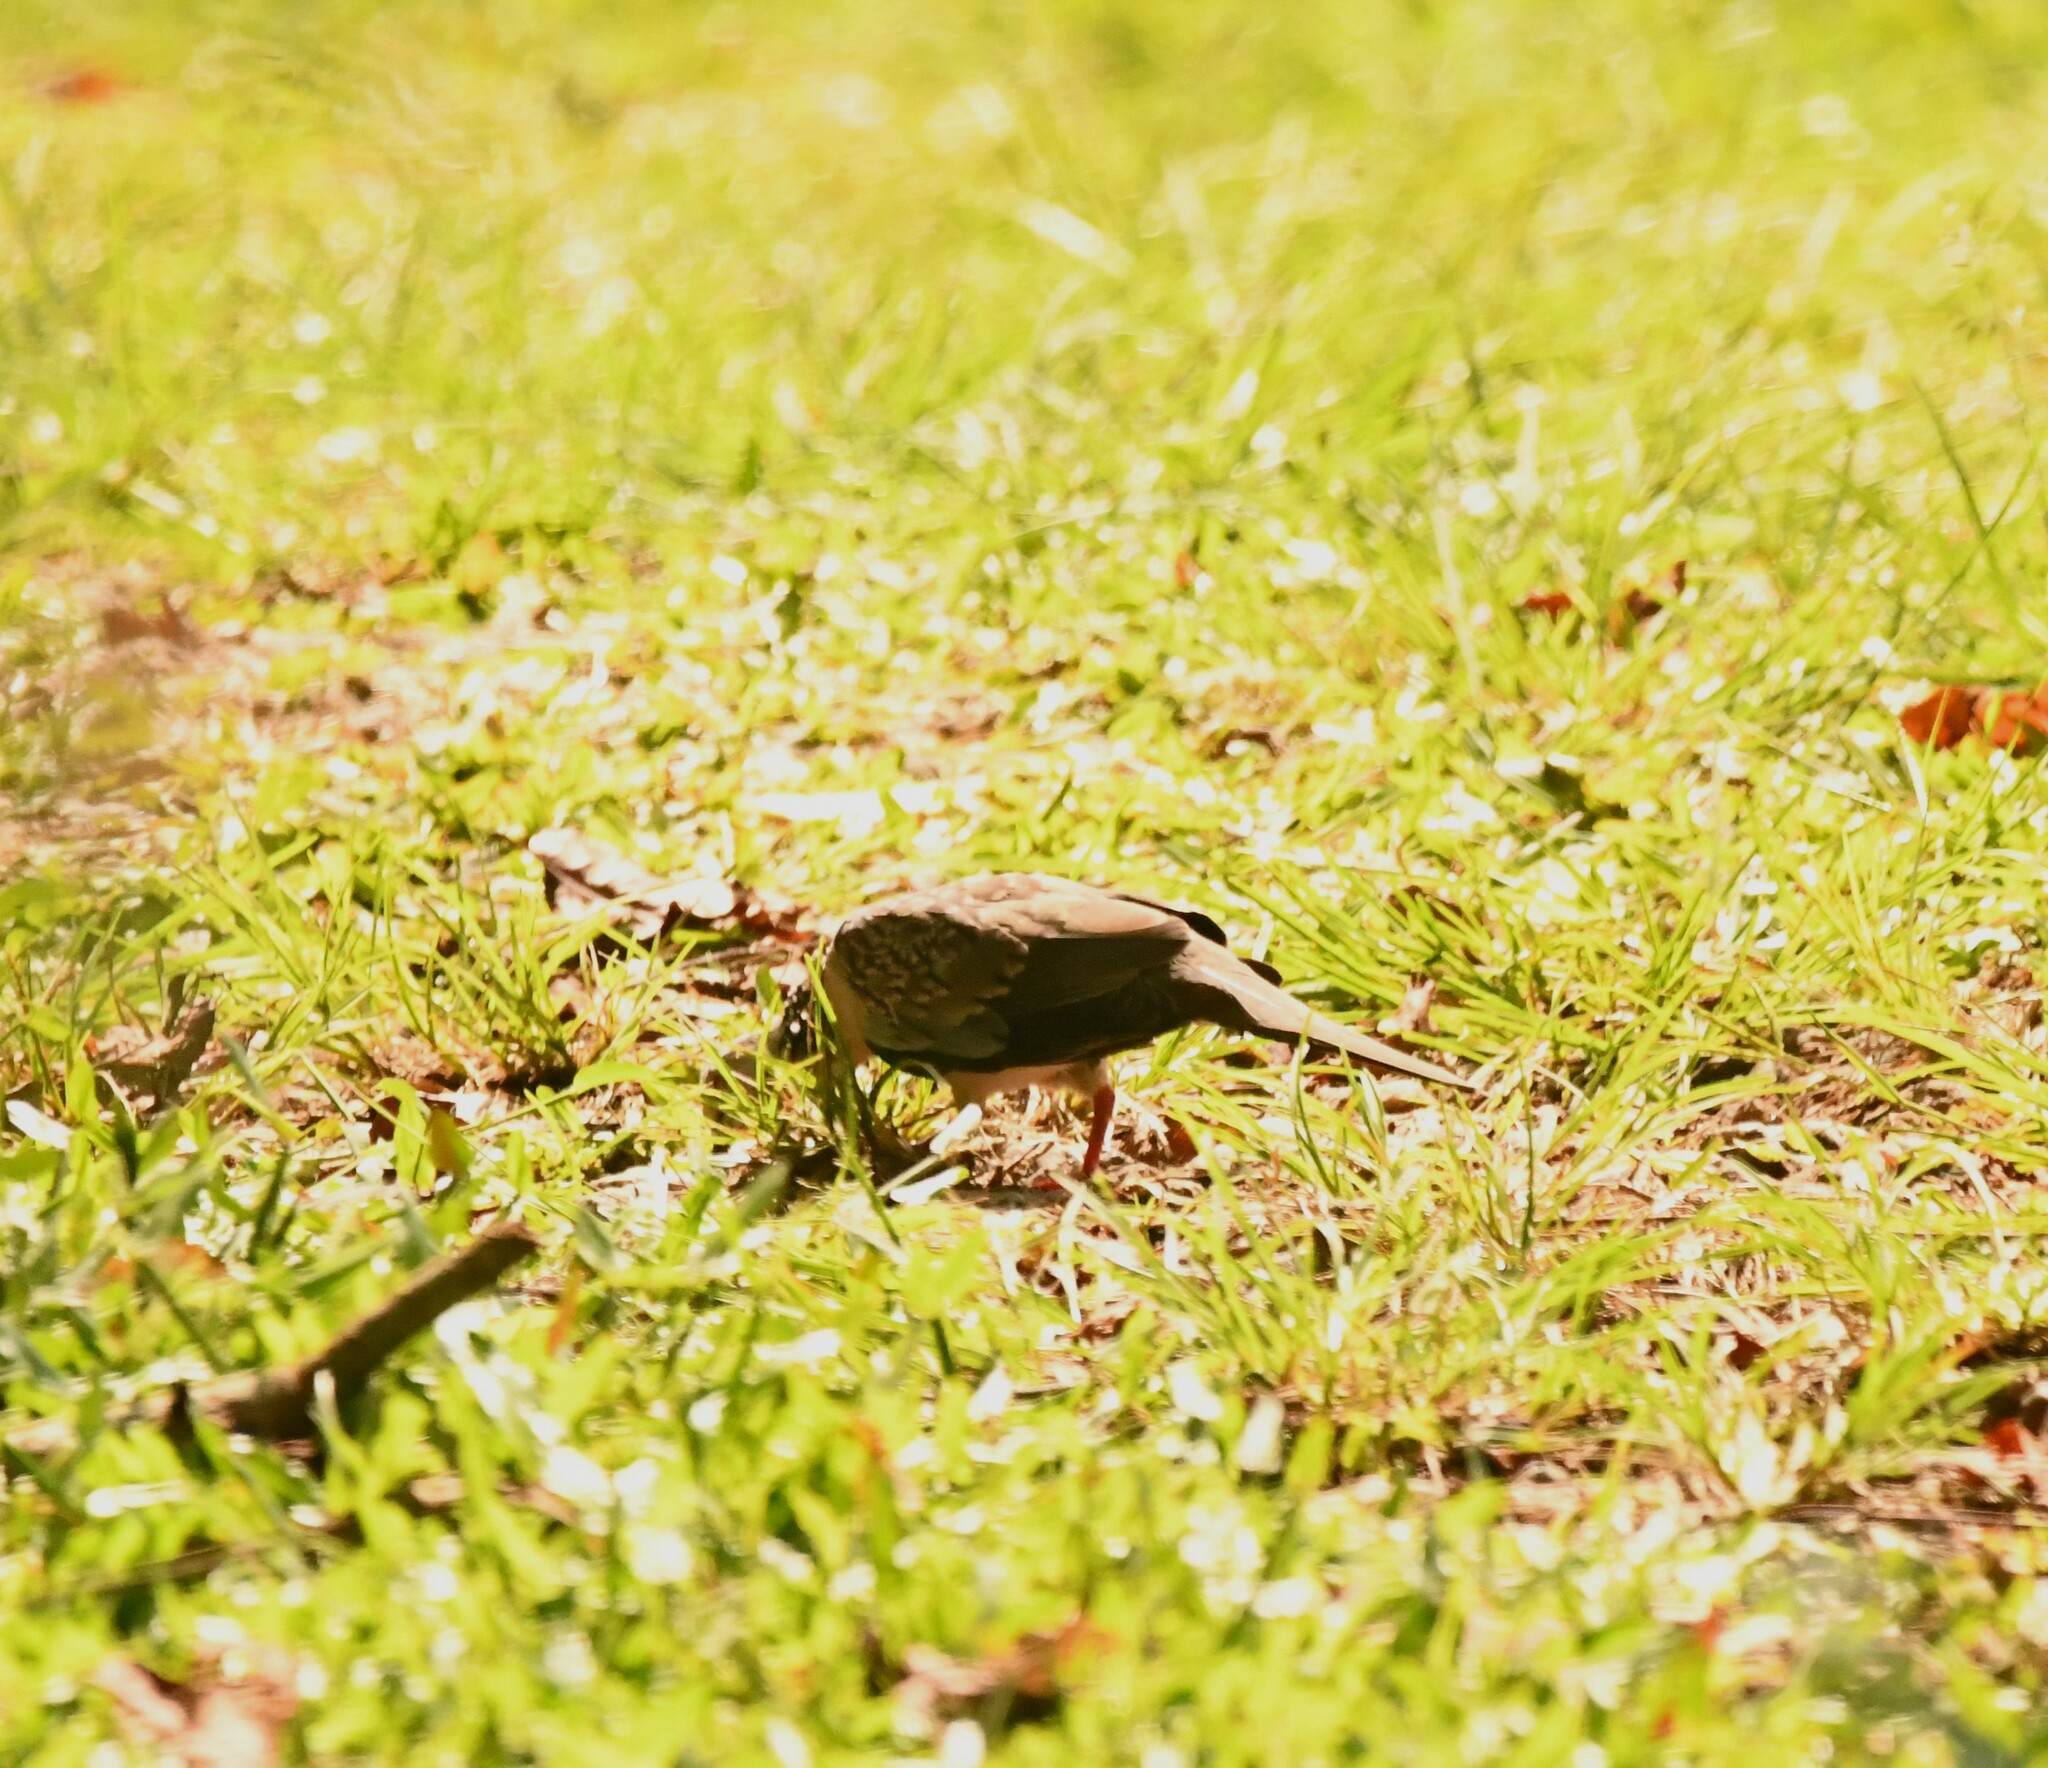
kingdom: Animalia
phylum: Chordata
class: Aves
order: Columbiformes
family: Columbidae
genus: Spilopelia
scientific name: Spilopelia chinensis
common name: Spotted dove
